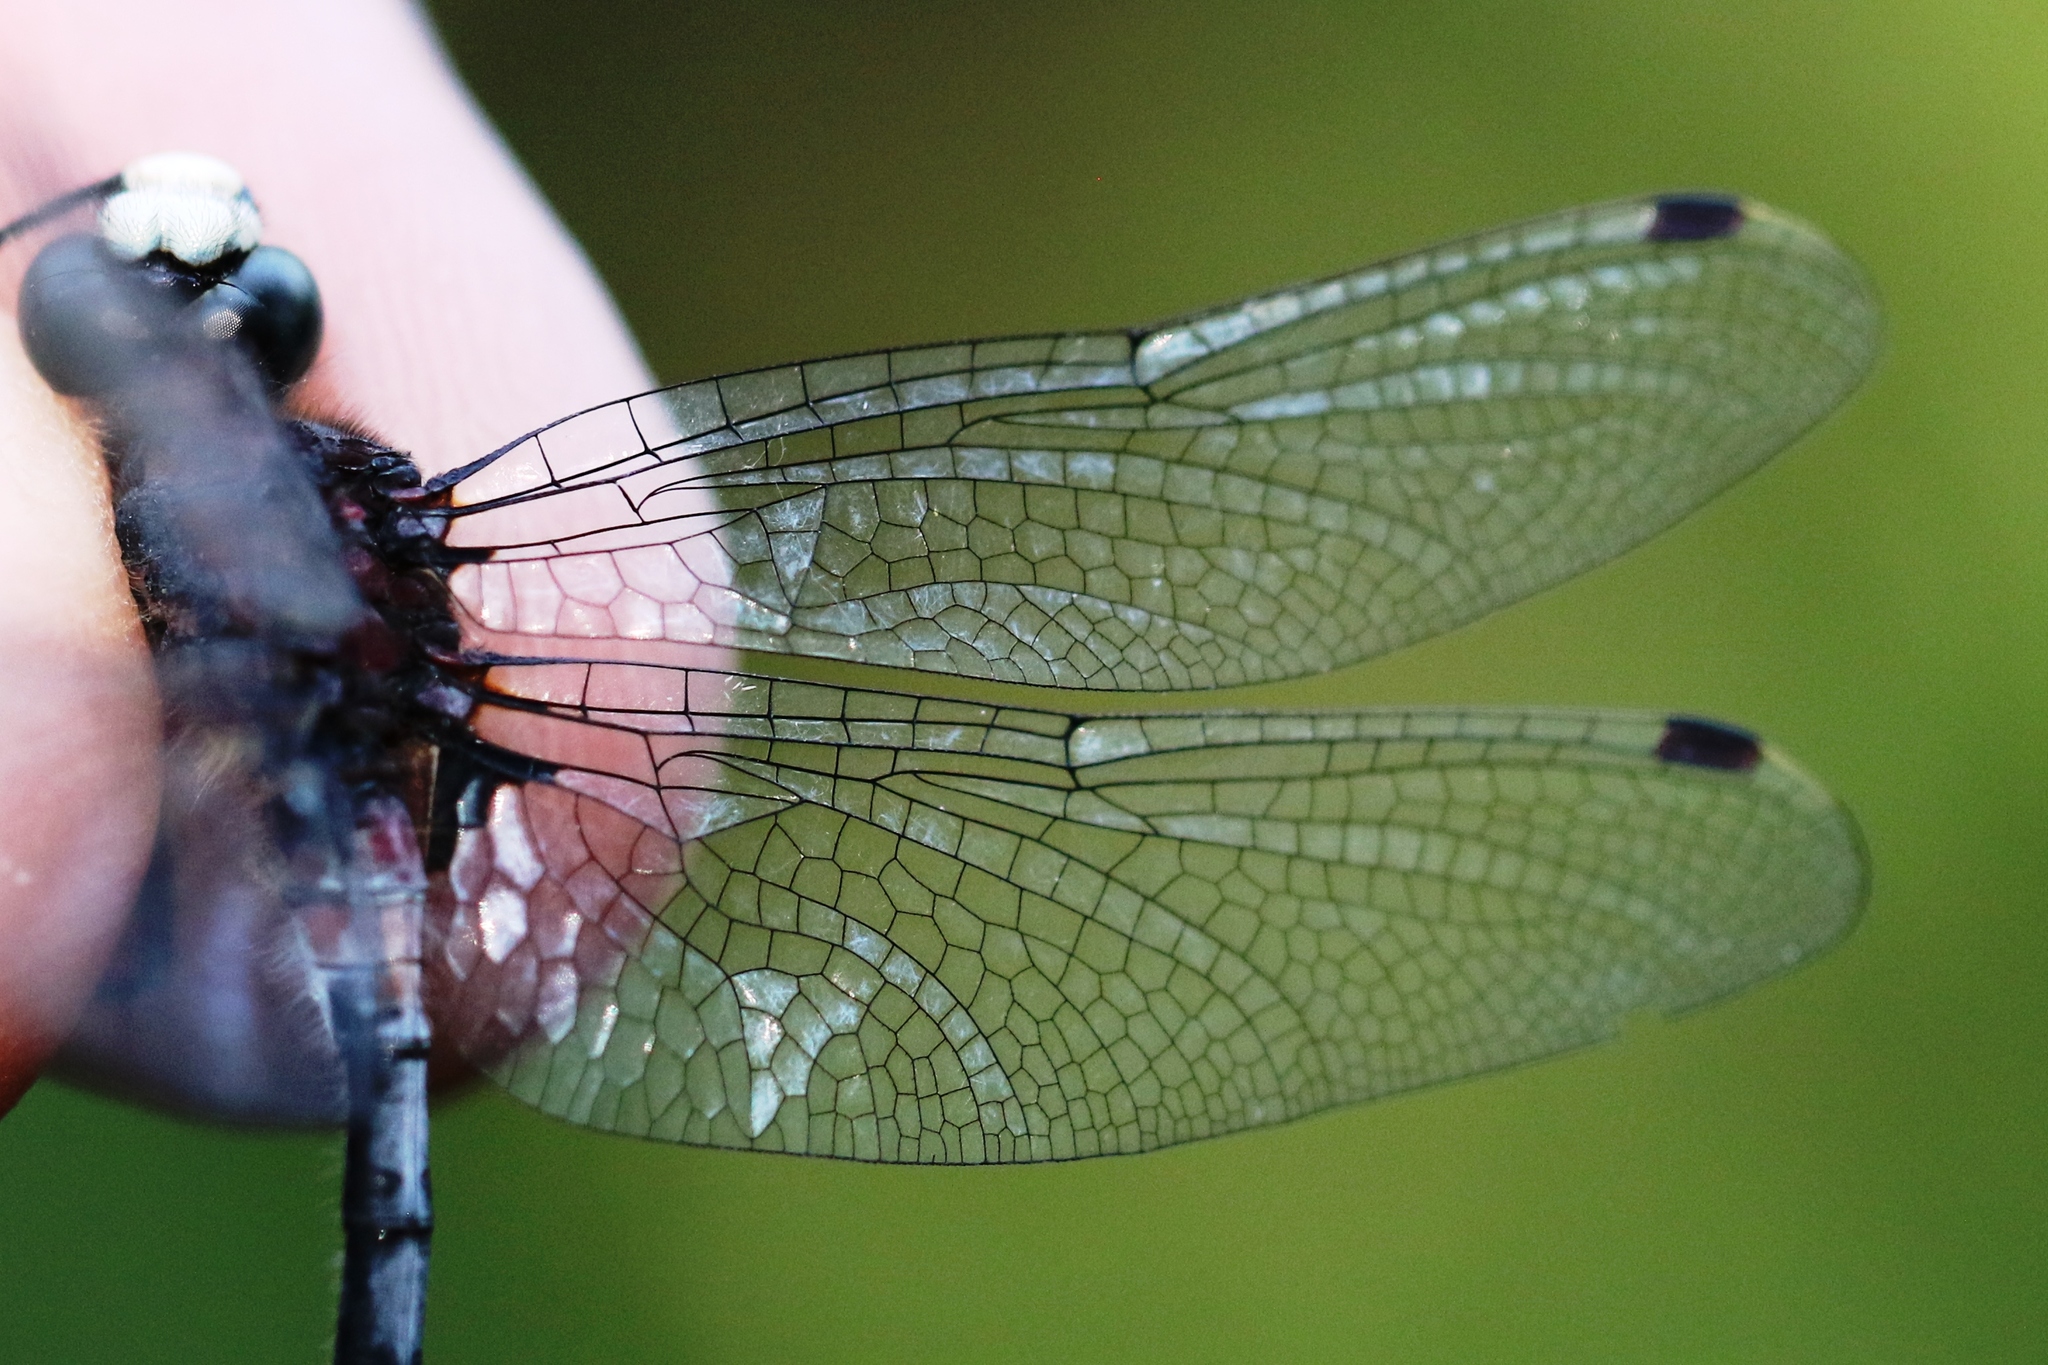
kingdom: Animalia
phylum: Arthropoda
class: Insecta
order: Odonata
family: Libellulidae
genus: Leucorrhinia
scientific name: Leucorrhinia proxima
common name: Belted whiteface
